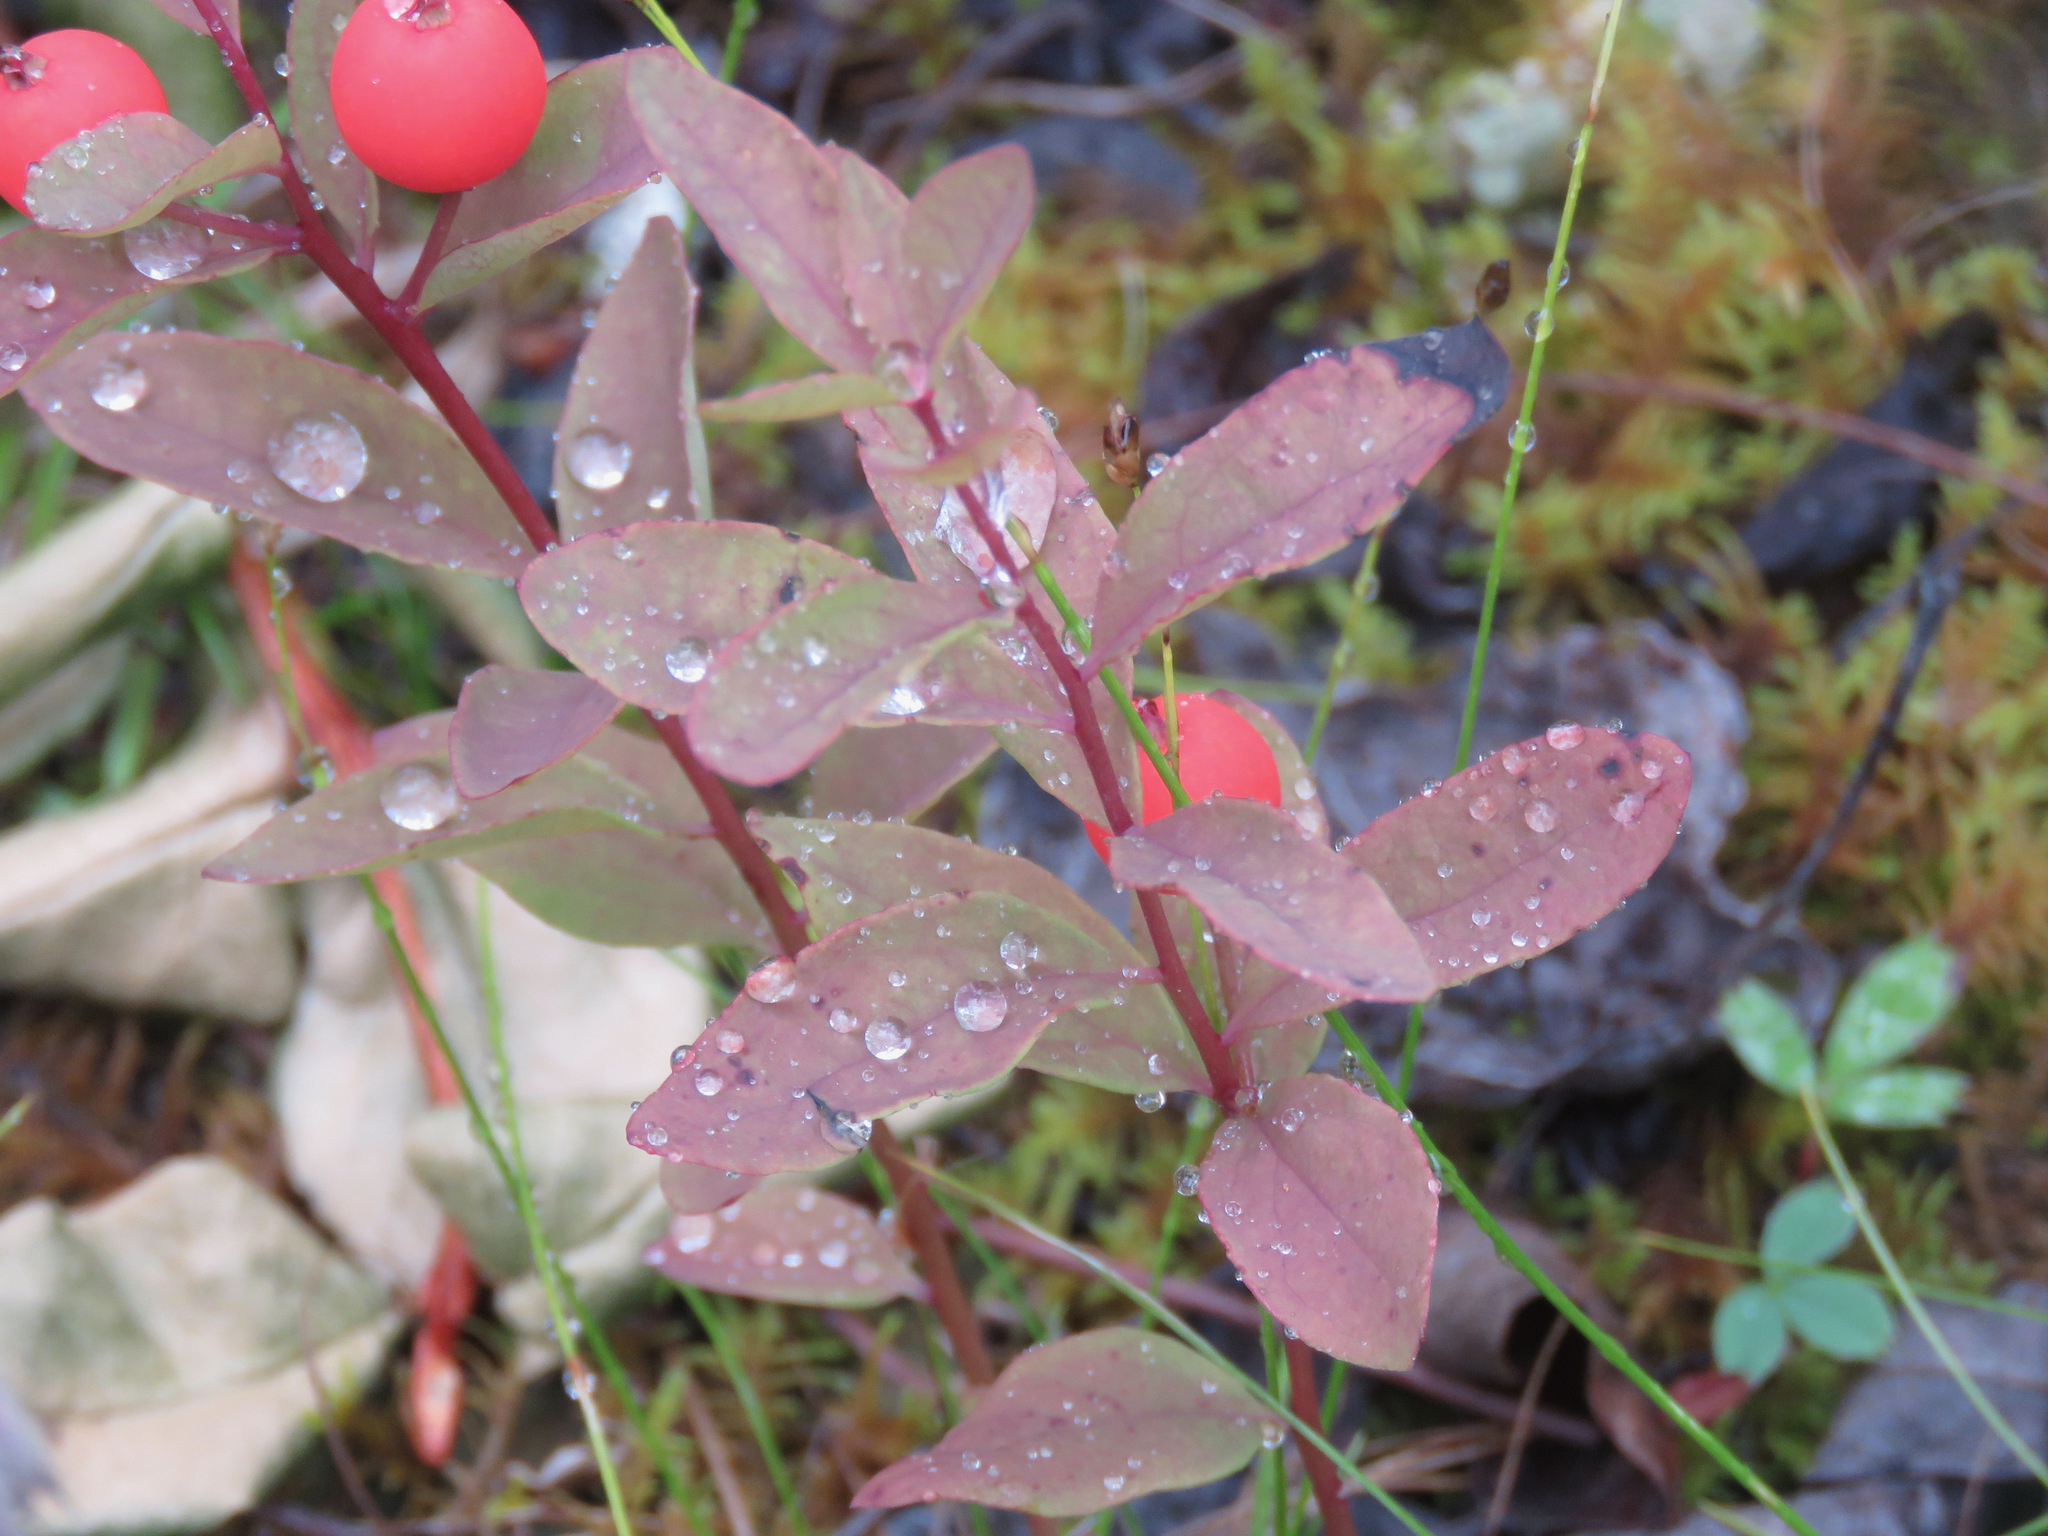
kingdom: Plantae
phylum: Tracheophyta
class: Magnoliopsida
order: Santalales
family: Comandraceae
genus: Geocaulon
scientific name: Geocaulon lividum
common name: Earthberry
